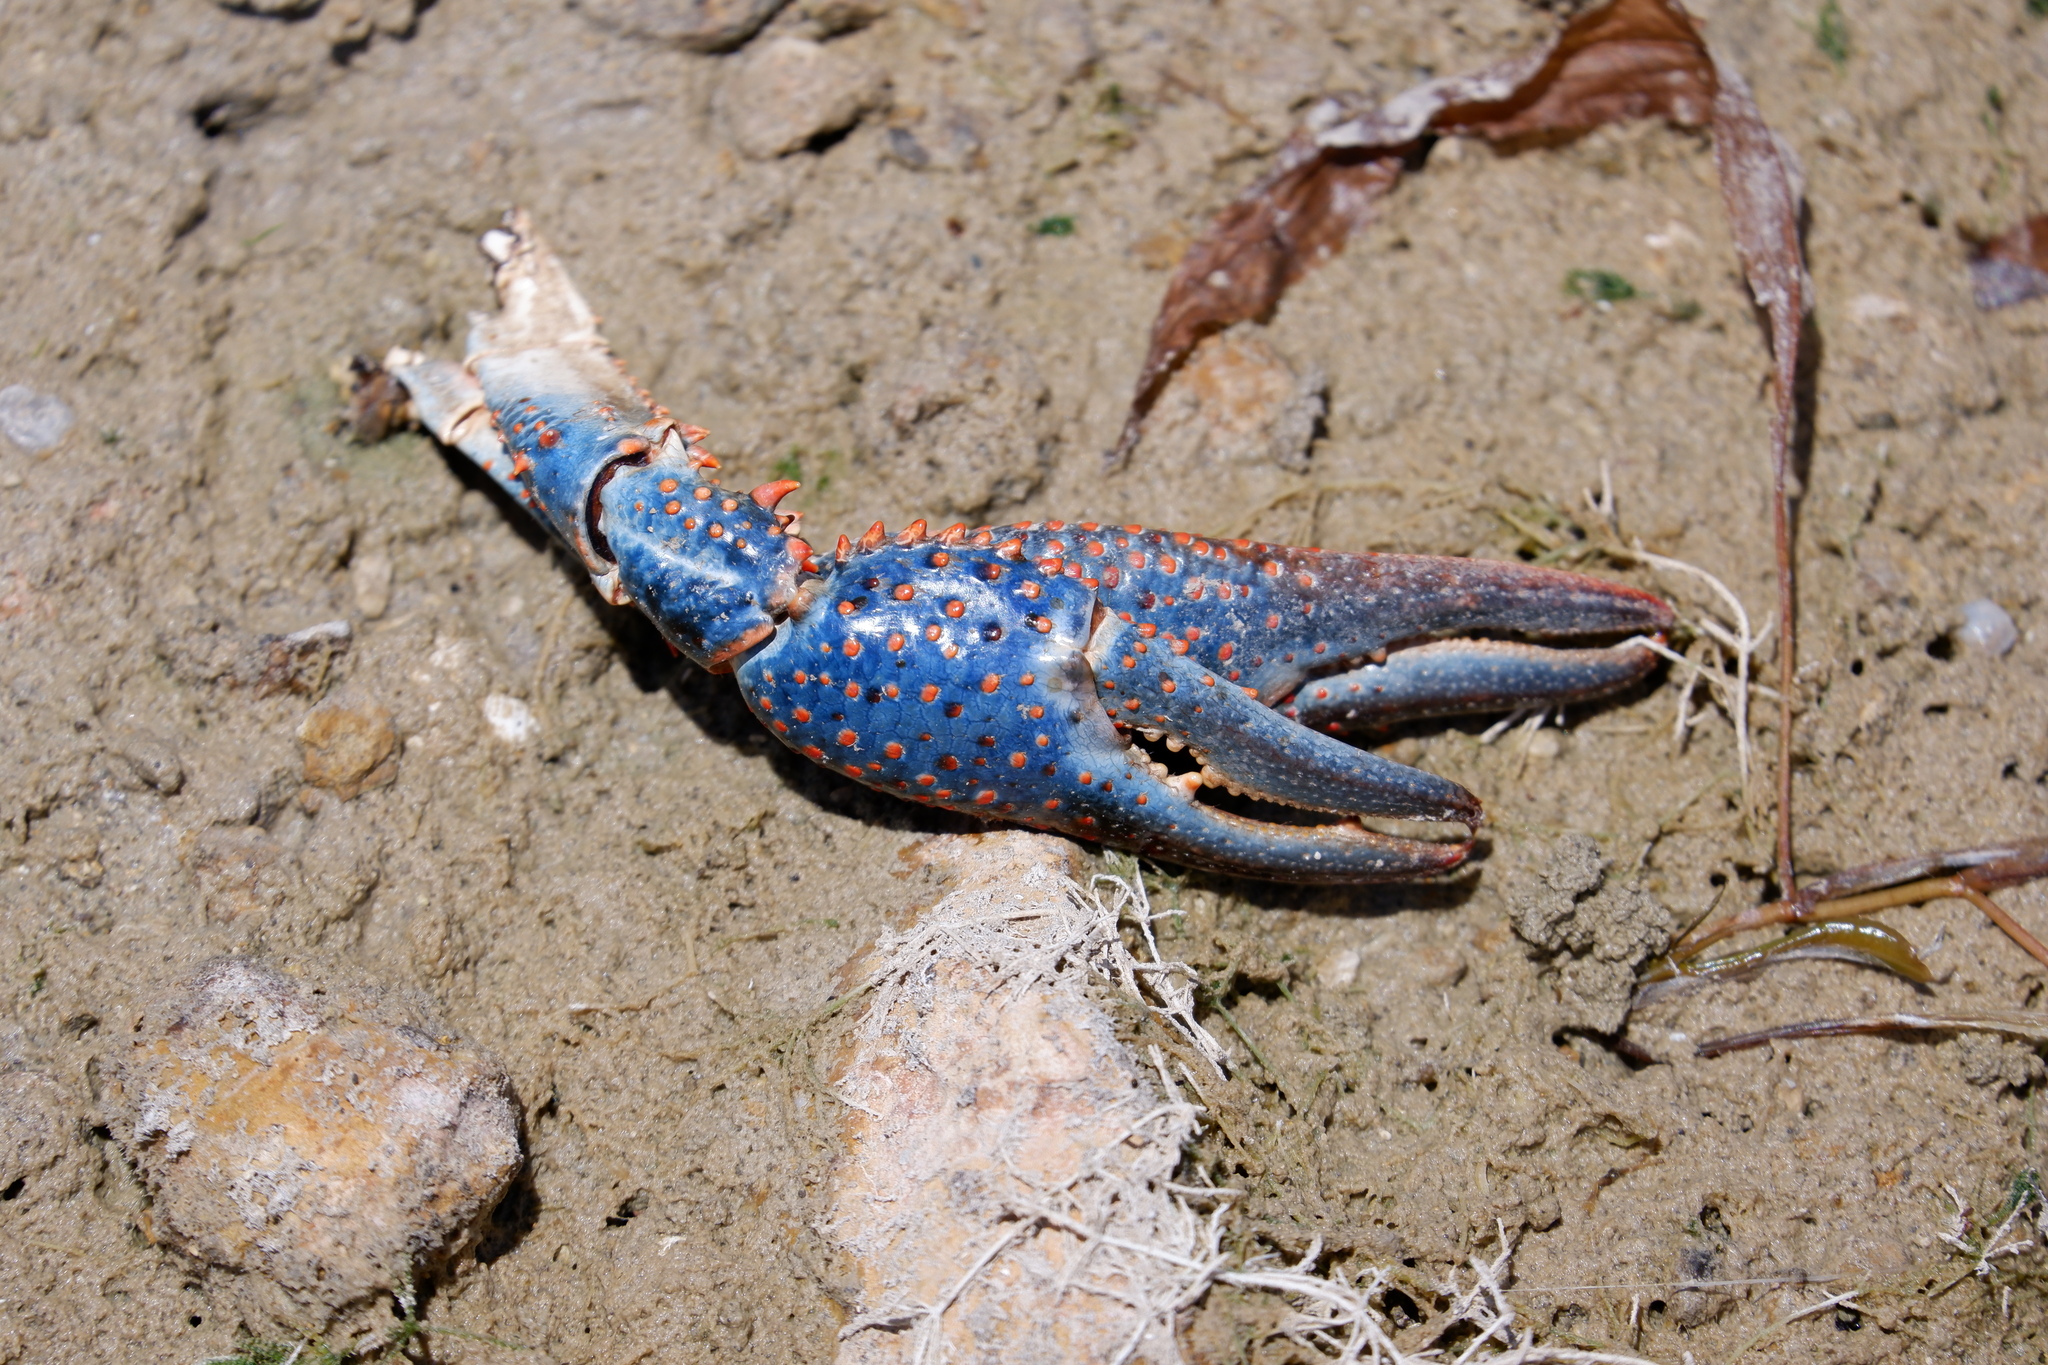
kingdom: Animalia
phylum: Arthropoda
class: Malacostraca
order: Decapoda
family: Cambaridae
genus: Procambarus
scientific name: Procambarus clarkii
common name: Red swamp crayfish
